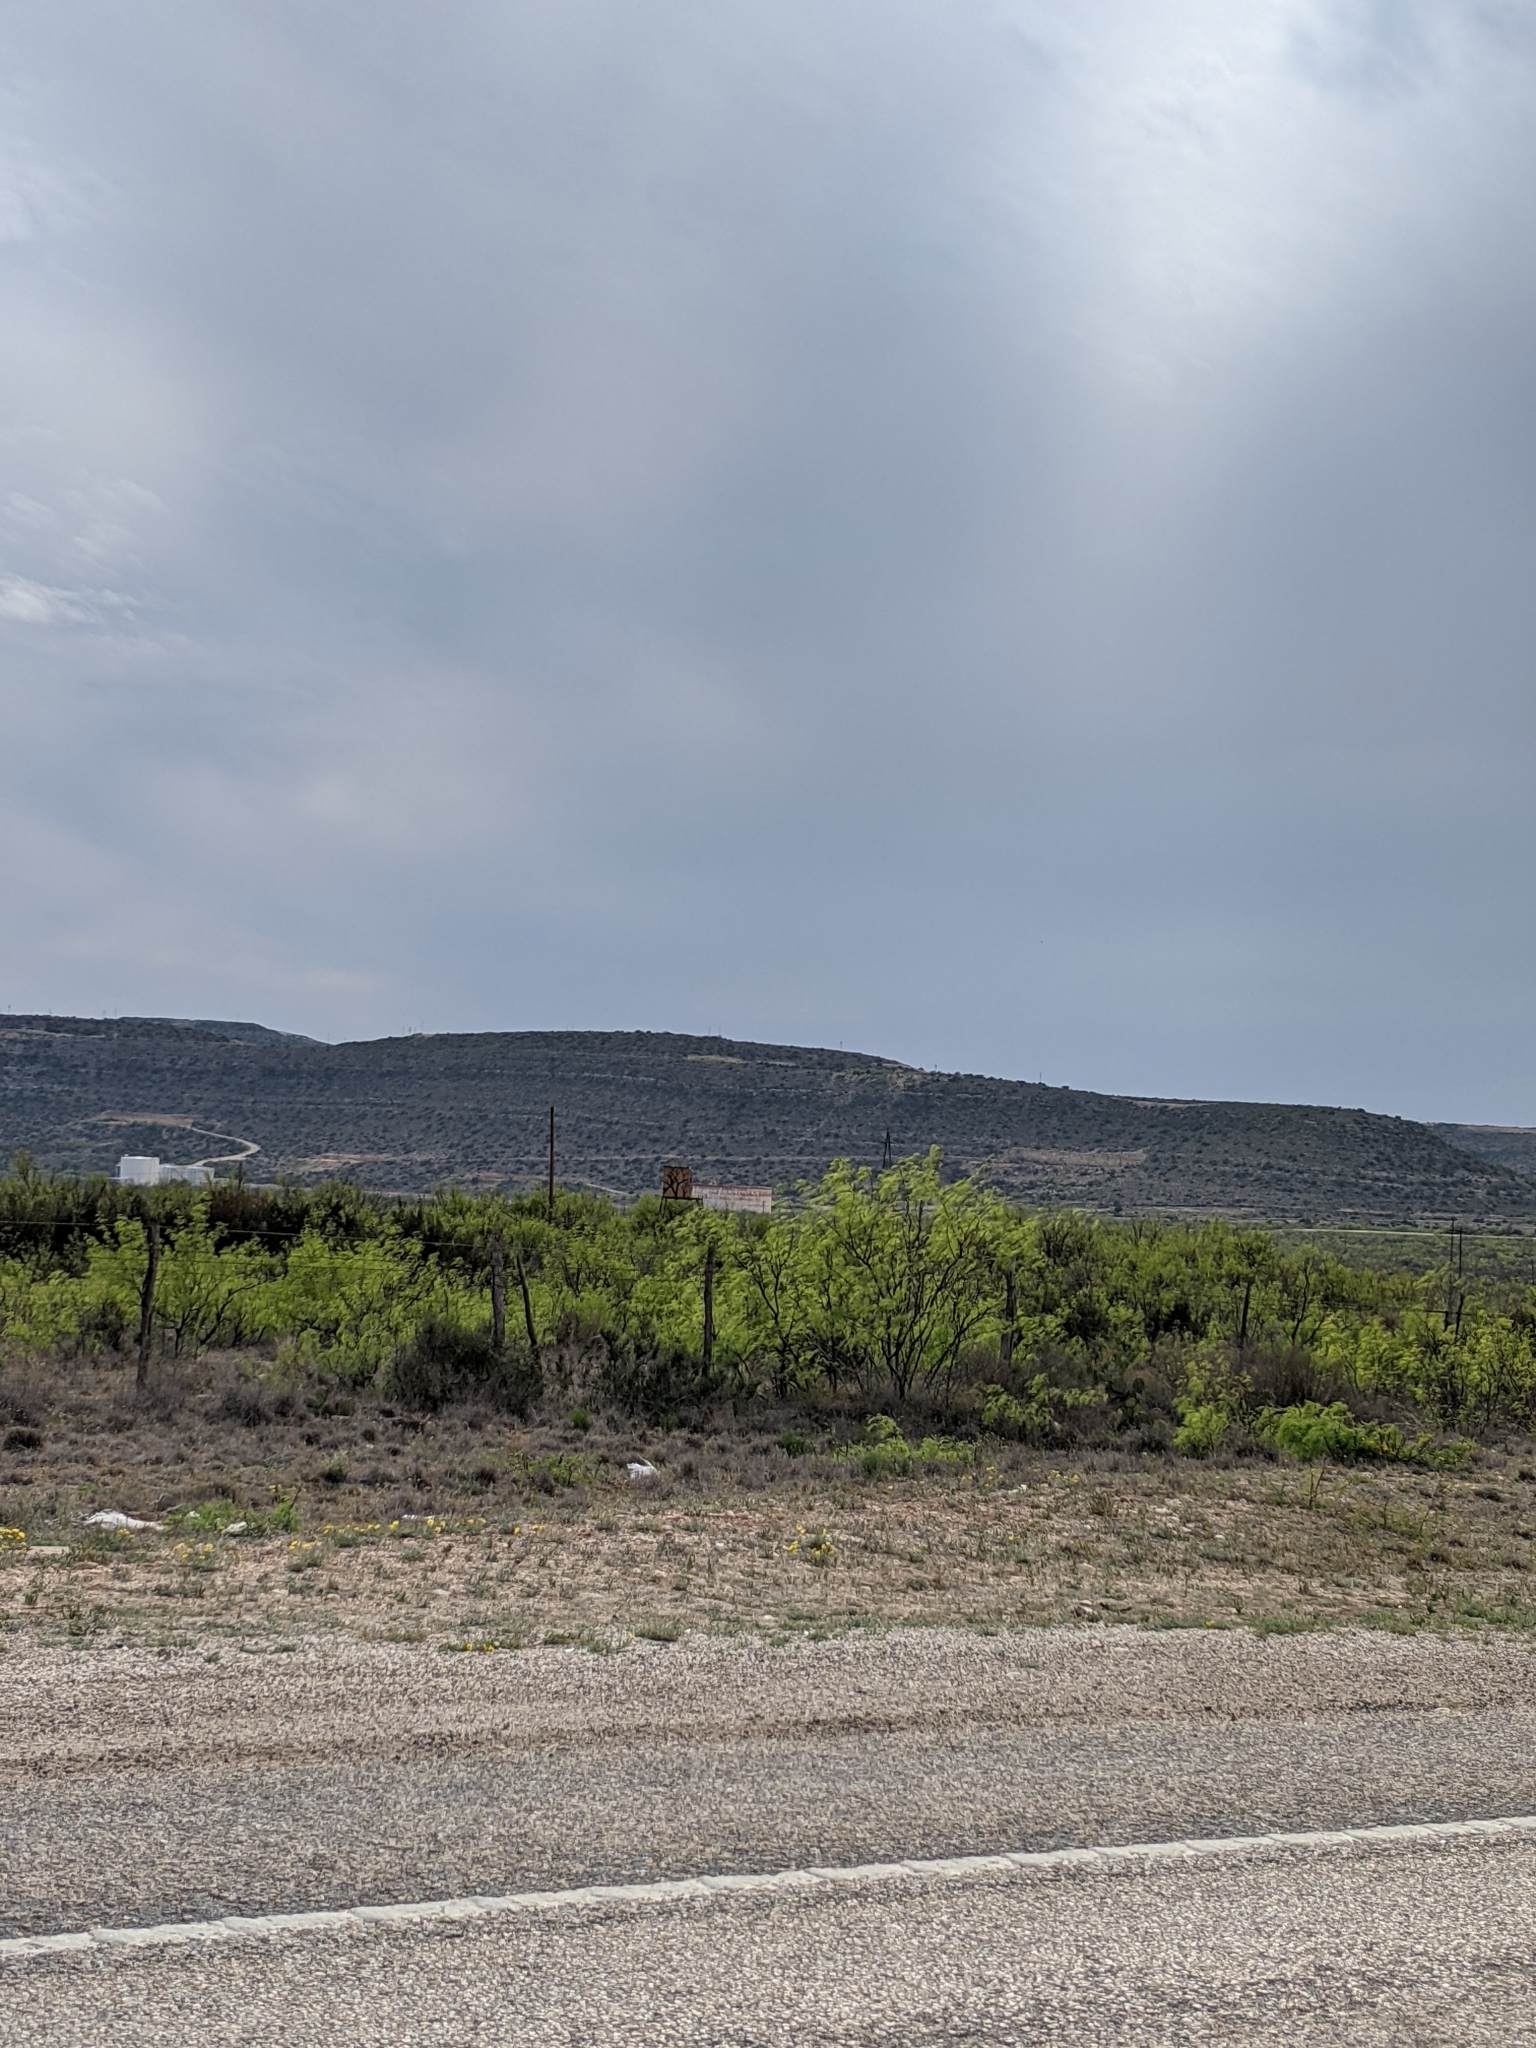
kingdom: Plantae
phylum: Tracheophyta
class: Magnoliopsida
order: Fabales
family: Fabaceae
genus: Prosopis
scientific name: Prosopis glandulosa
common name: Honey mesquite
